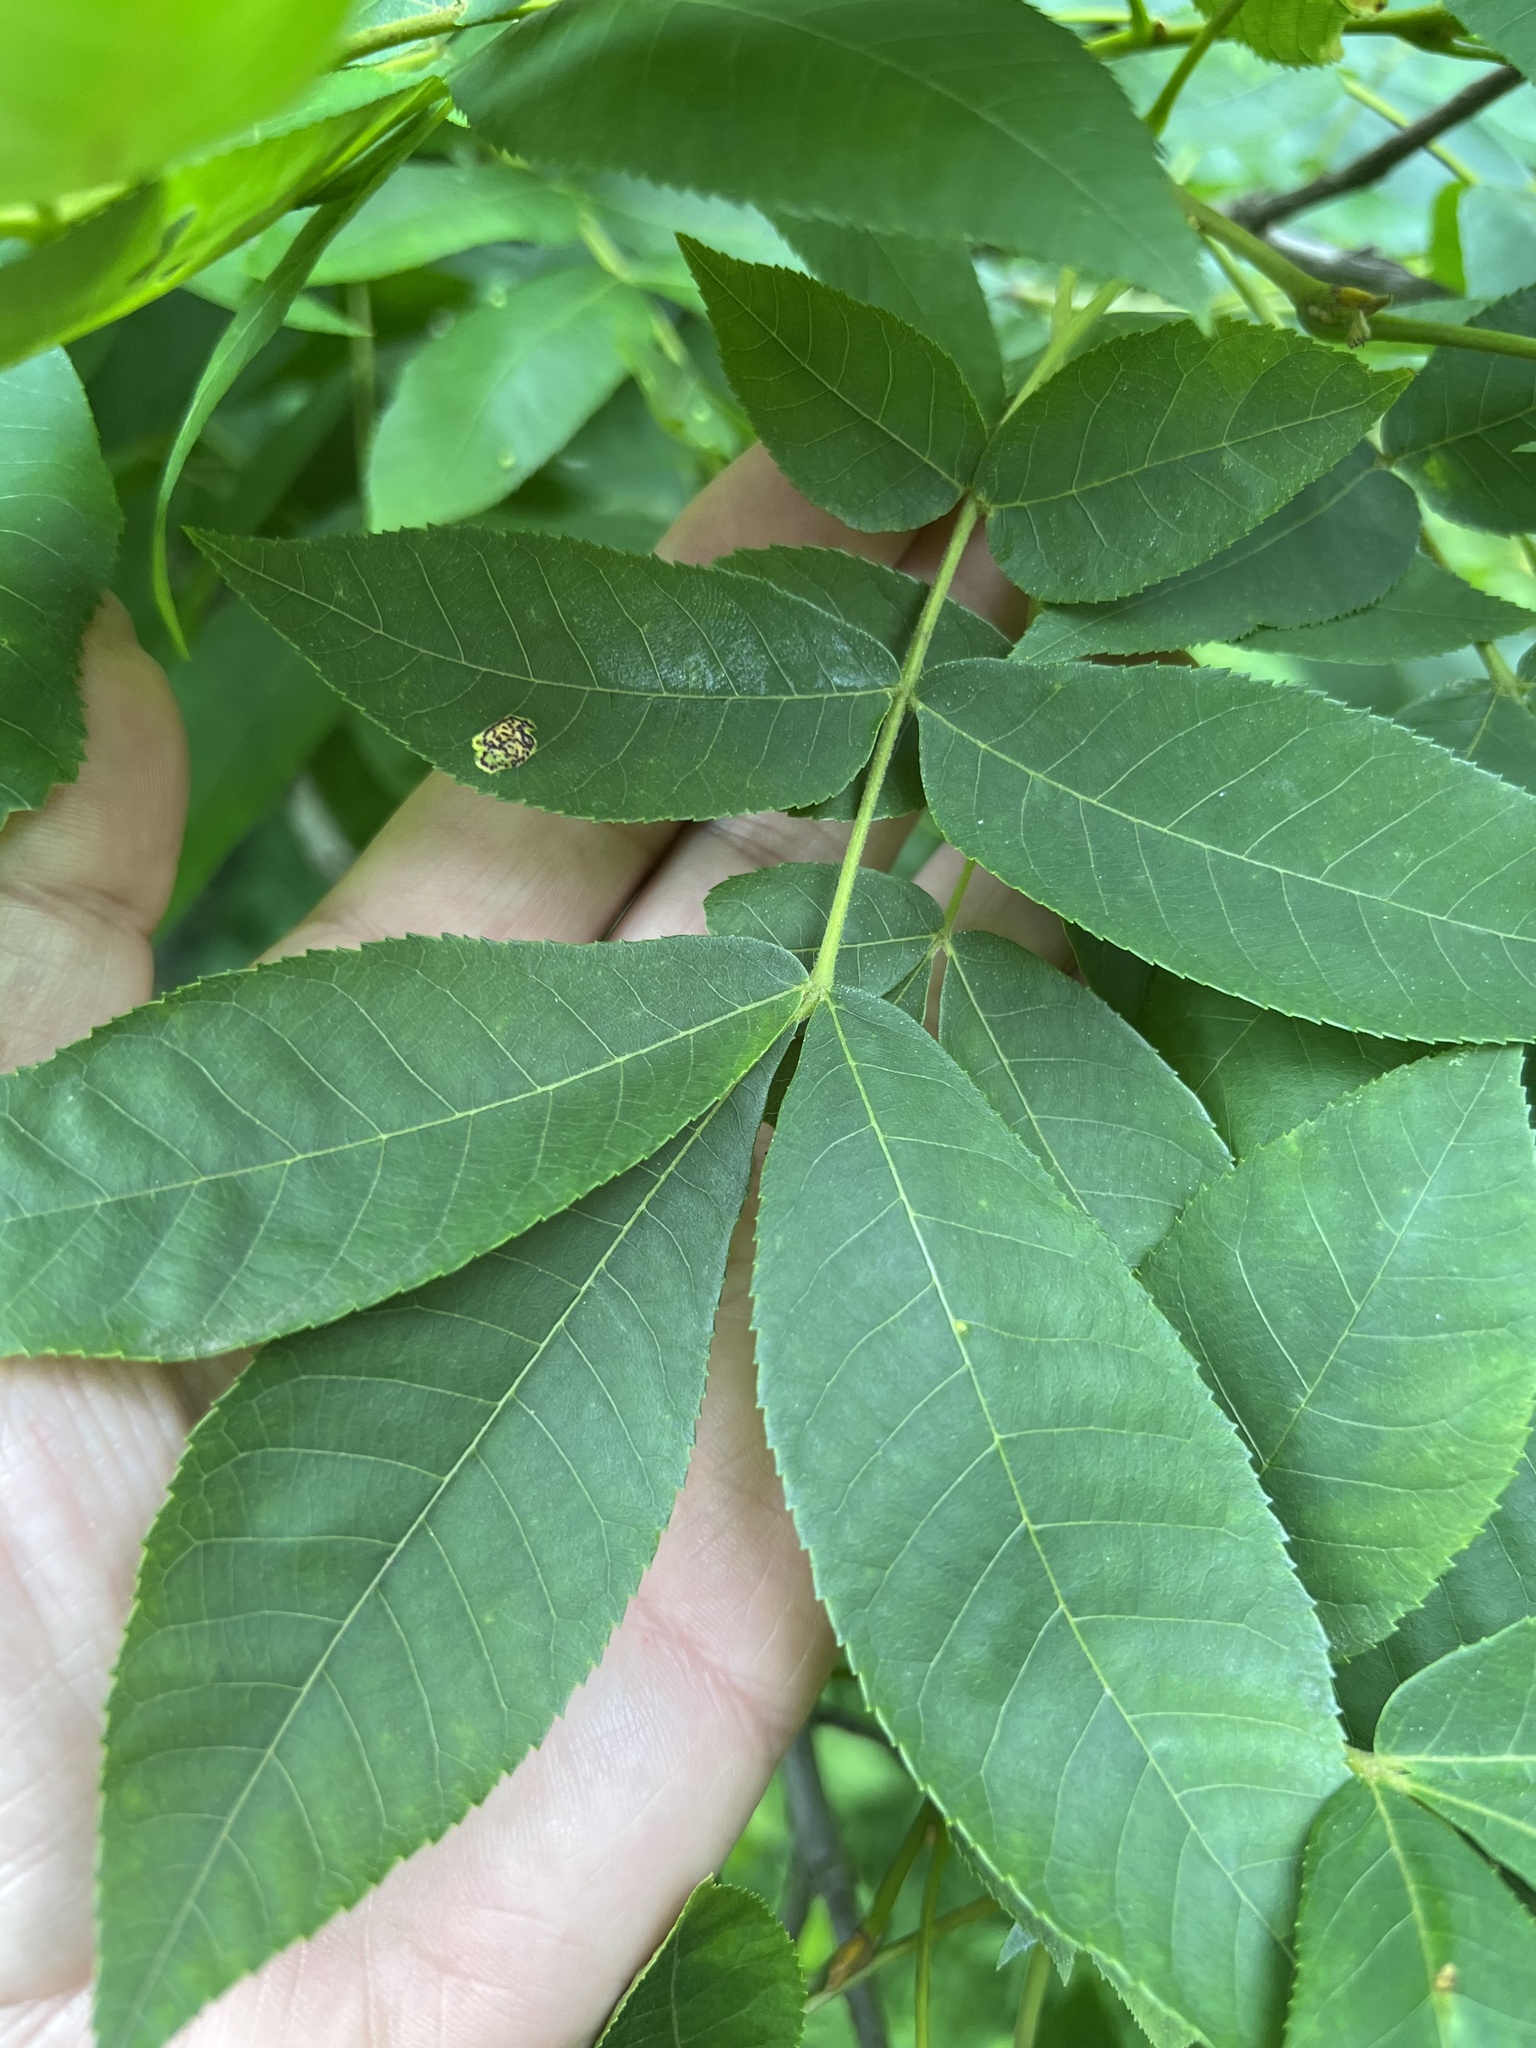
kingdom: Animalia
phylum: Arthropoda
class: Insecta
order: Diptera
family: Cecidomyiidae
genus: Gliaspilota
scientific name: Gliaspilota glutinosa
